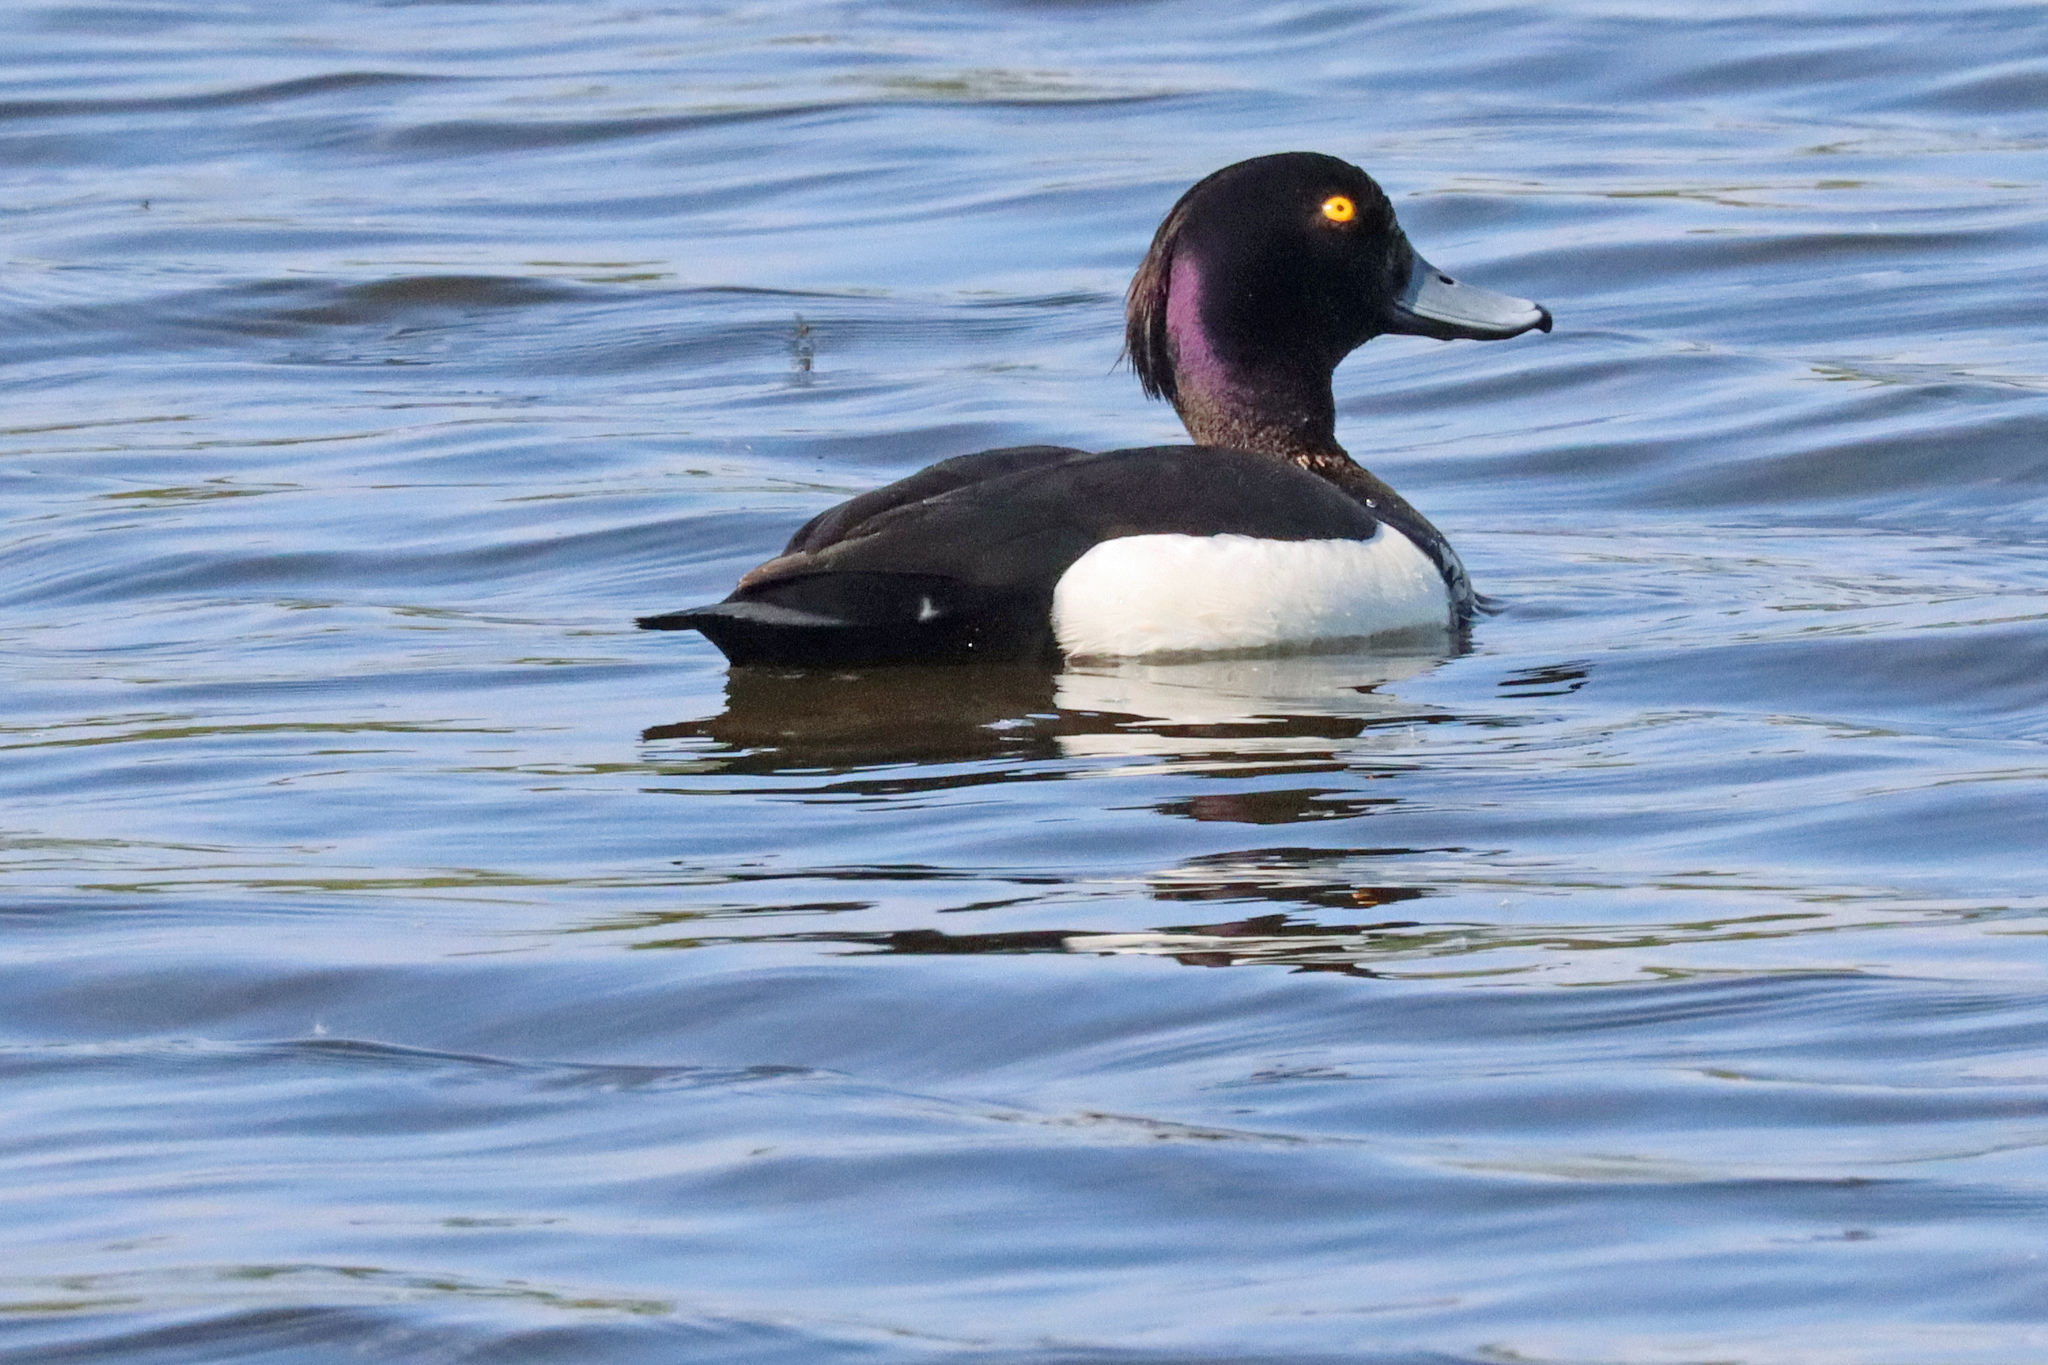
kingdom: Animalia
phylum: Chordata
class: Aves
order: Anseriformes
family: Anatidae
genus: Aythya
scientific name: Aythya fuligula
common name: Tufted duck
